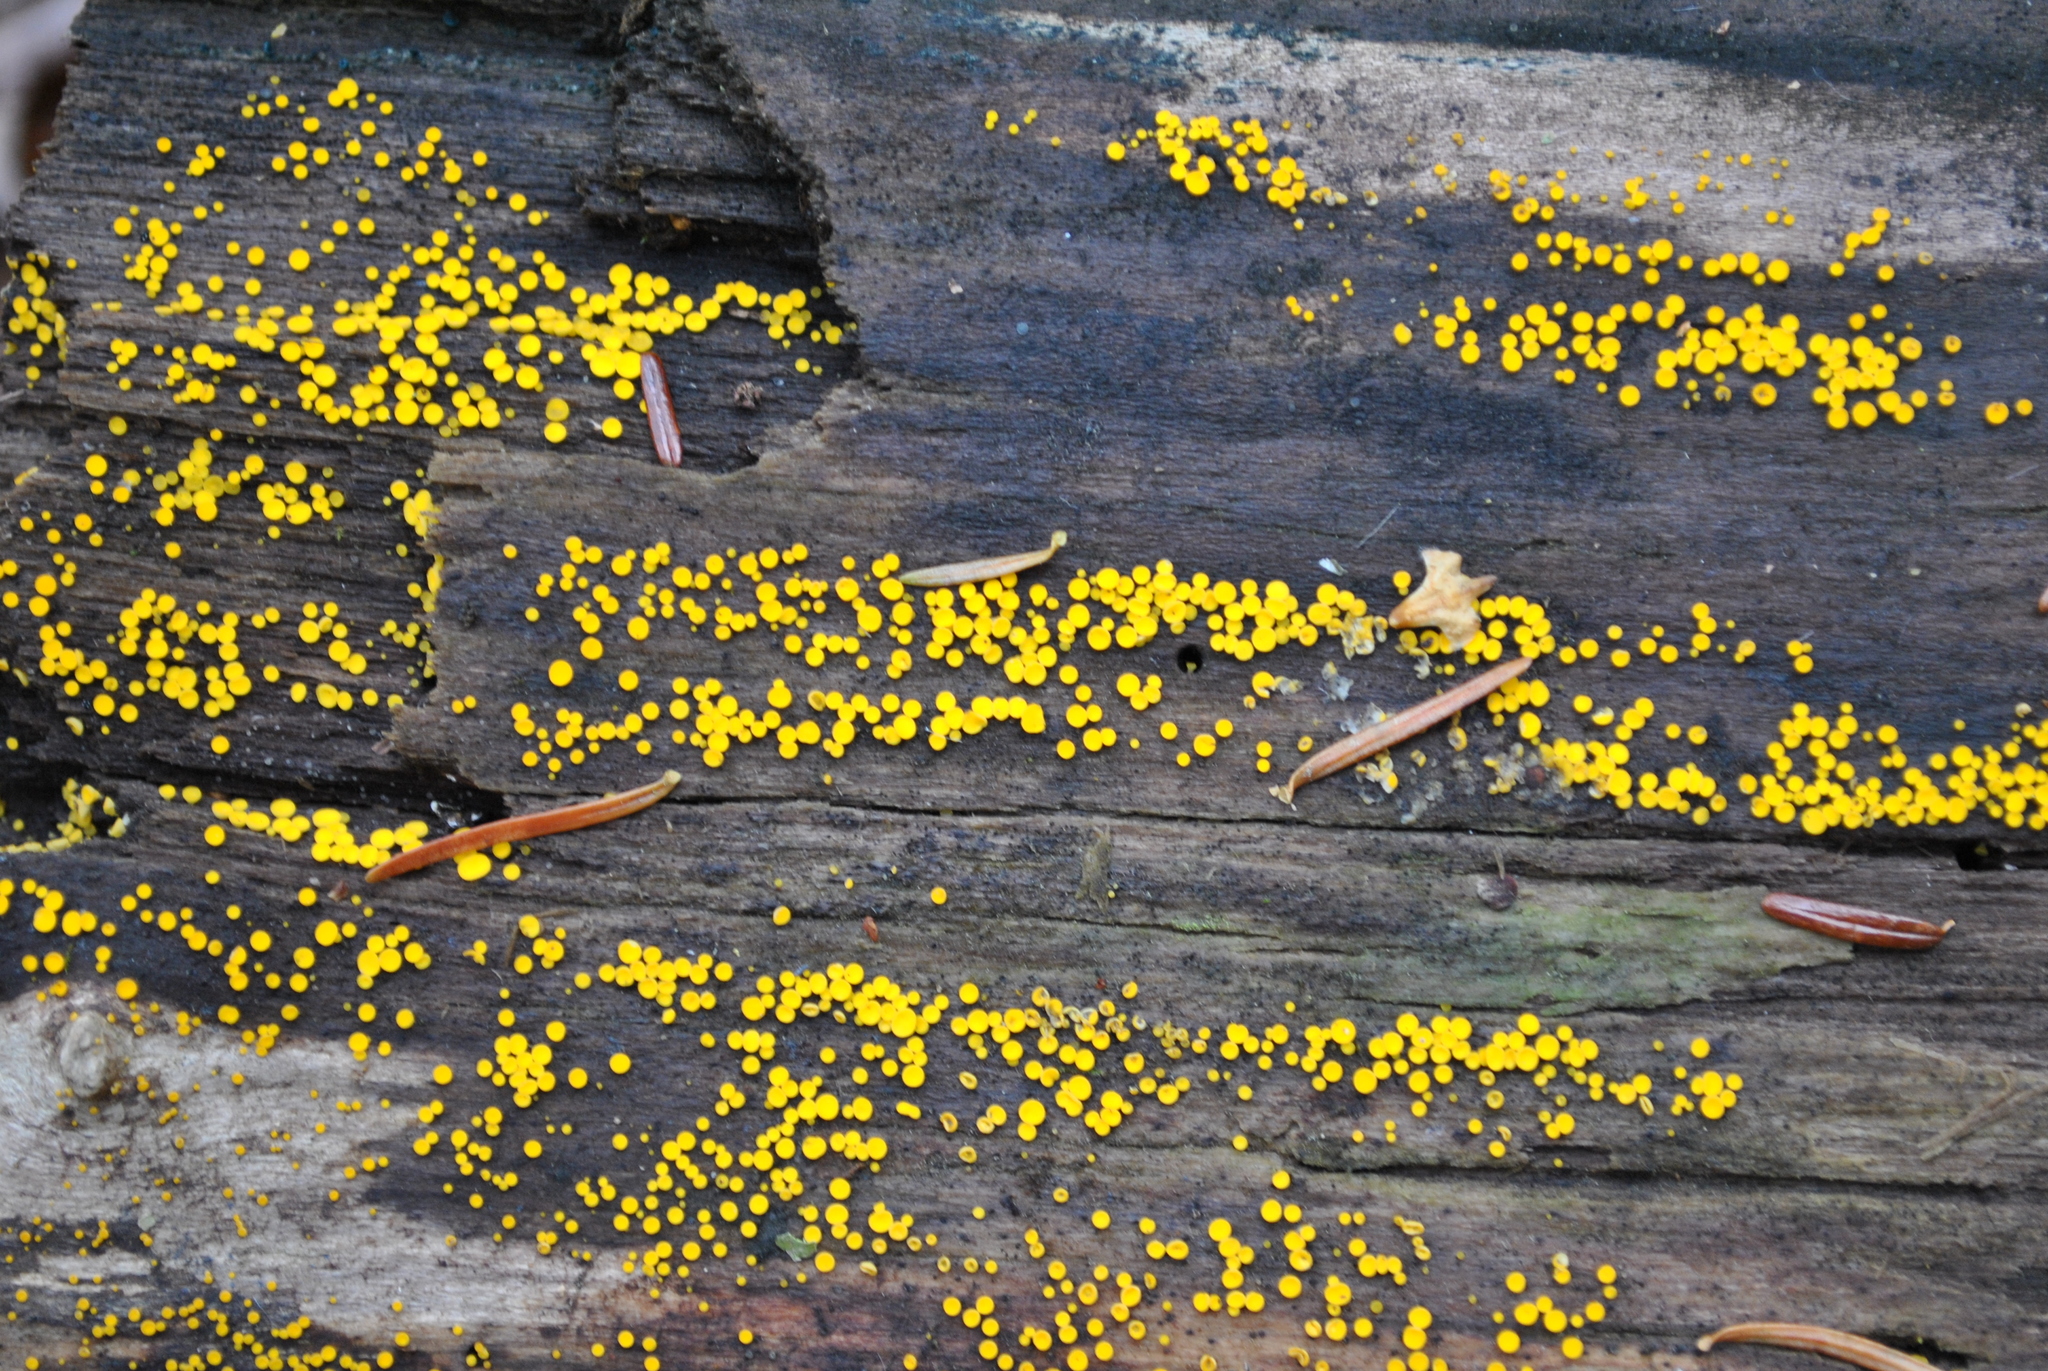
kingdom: Fungi
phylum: Ascomycota
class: Leotiomycetes
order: Helotiales
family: Pezizellaceae
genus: Calycina
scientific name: Calycina citrina
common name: Yellow fairy cups
